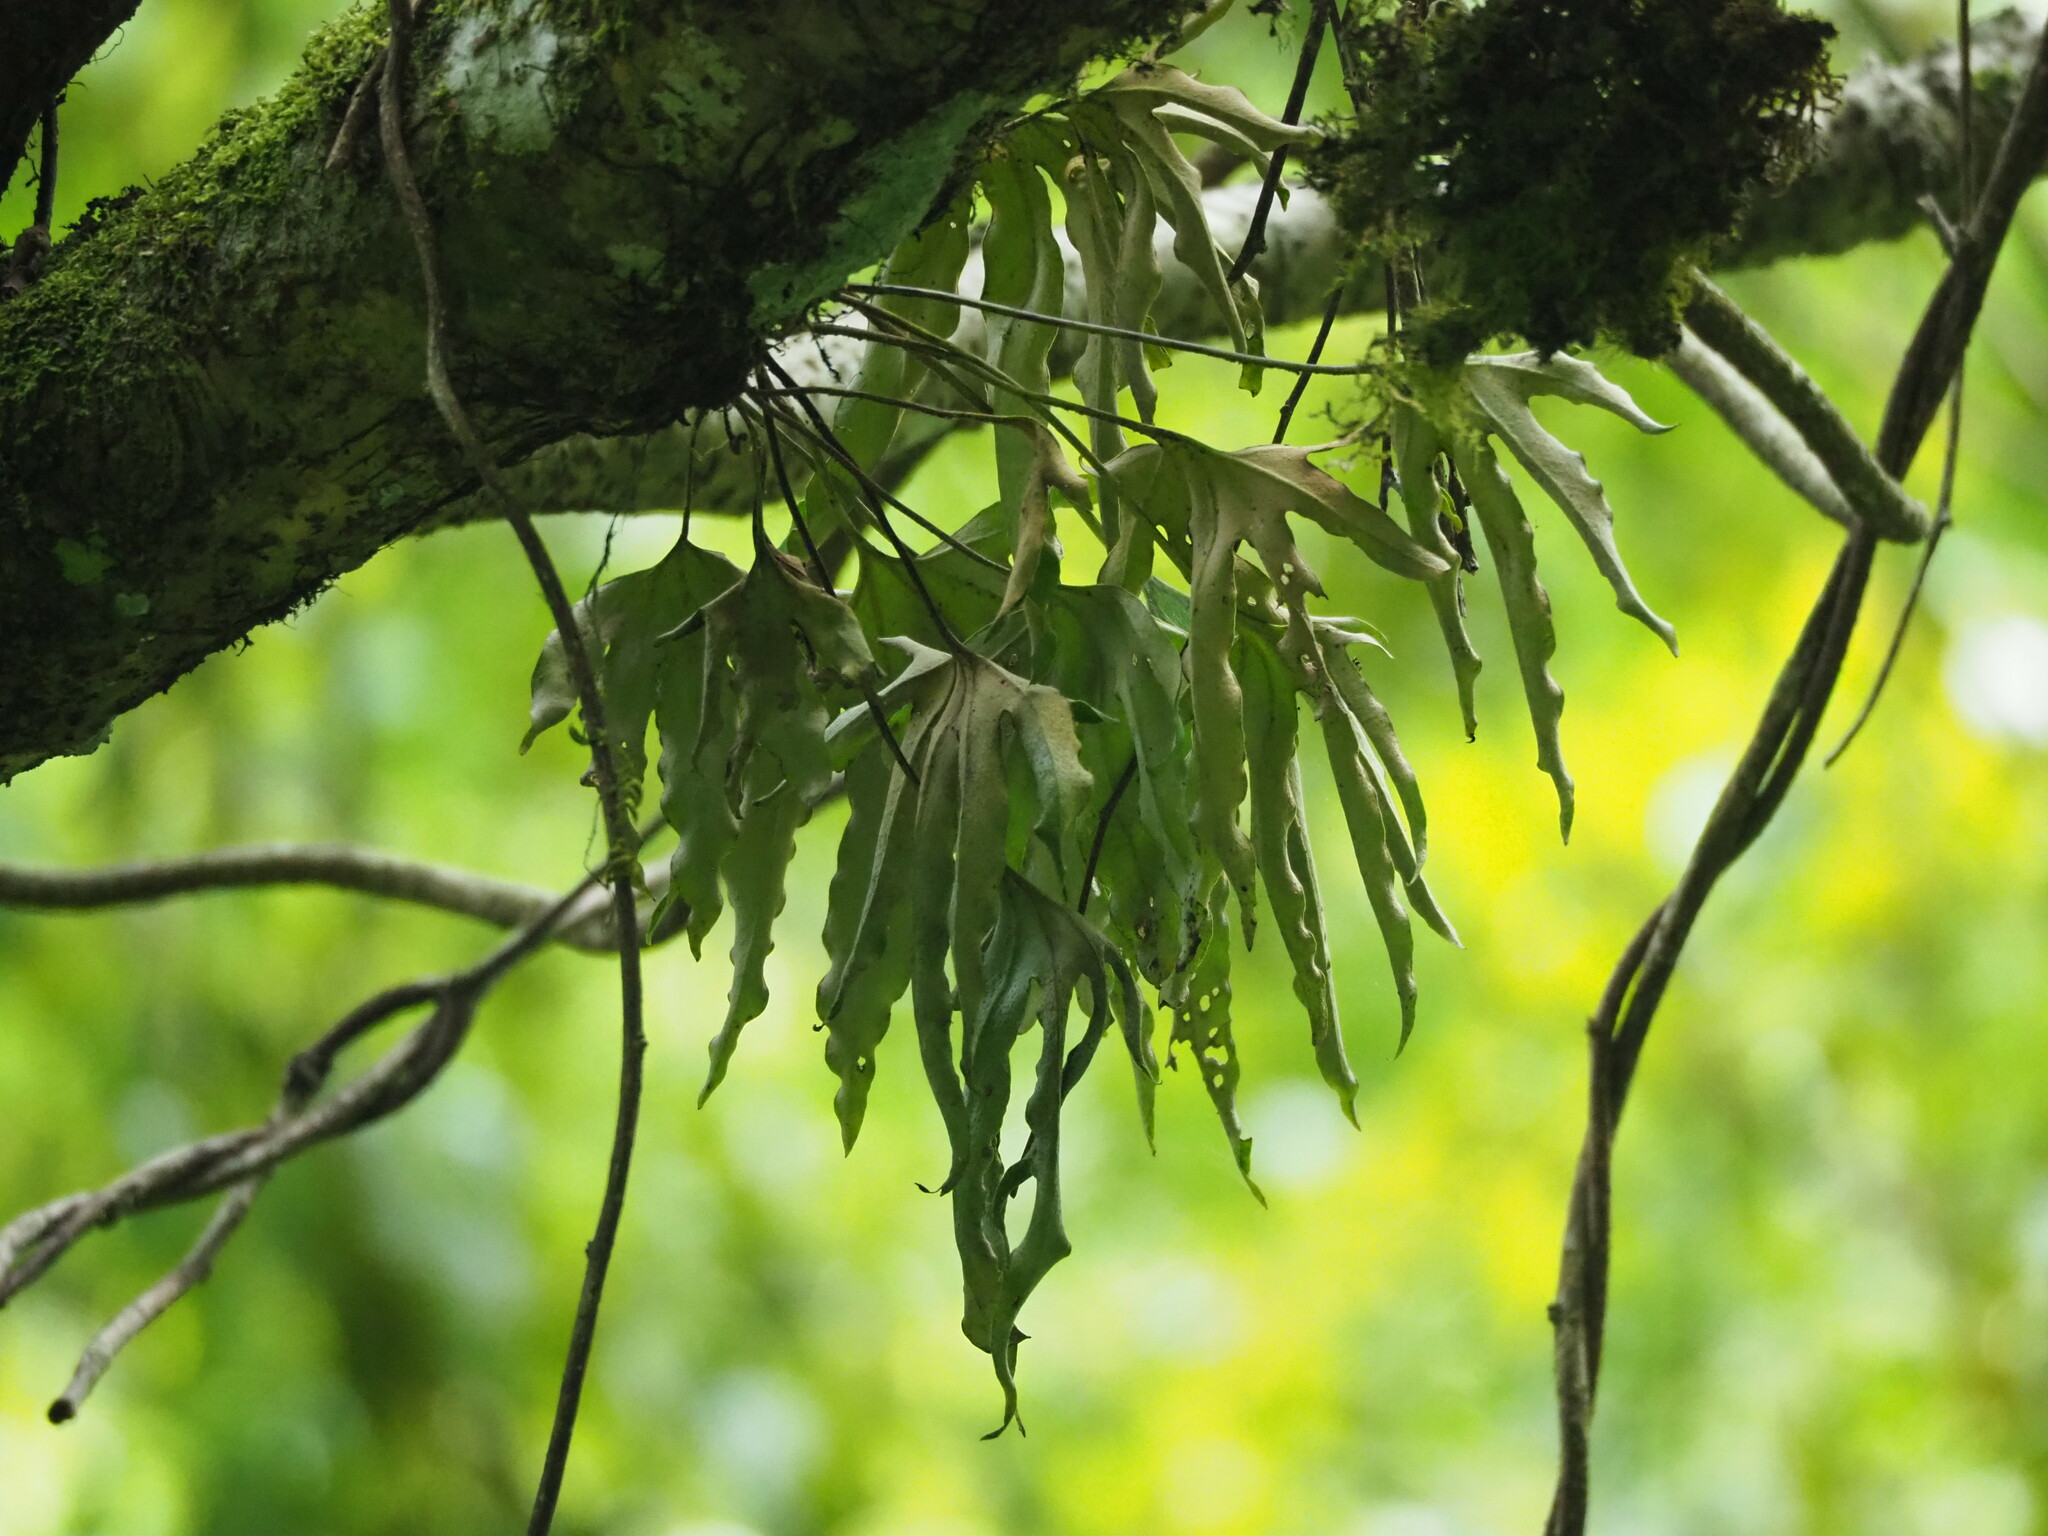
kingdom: Plantae
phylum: Tracheophyta
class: Polypodiopsida
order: Polypodiales
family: Polypodiaceae
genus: Pyrrosia
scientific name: Pyrrosia polydactyla
